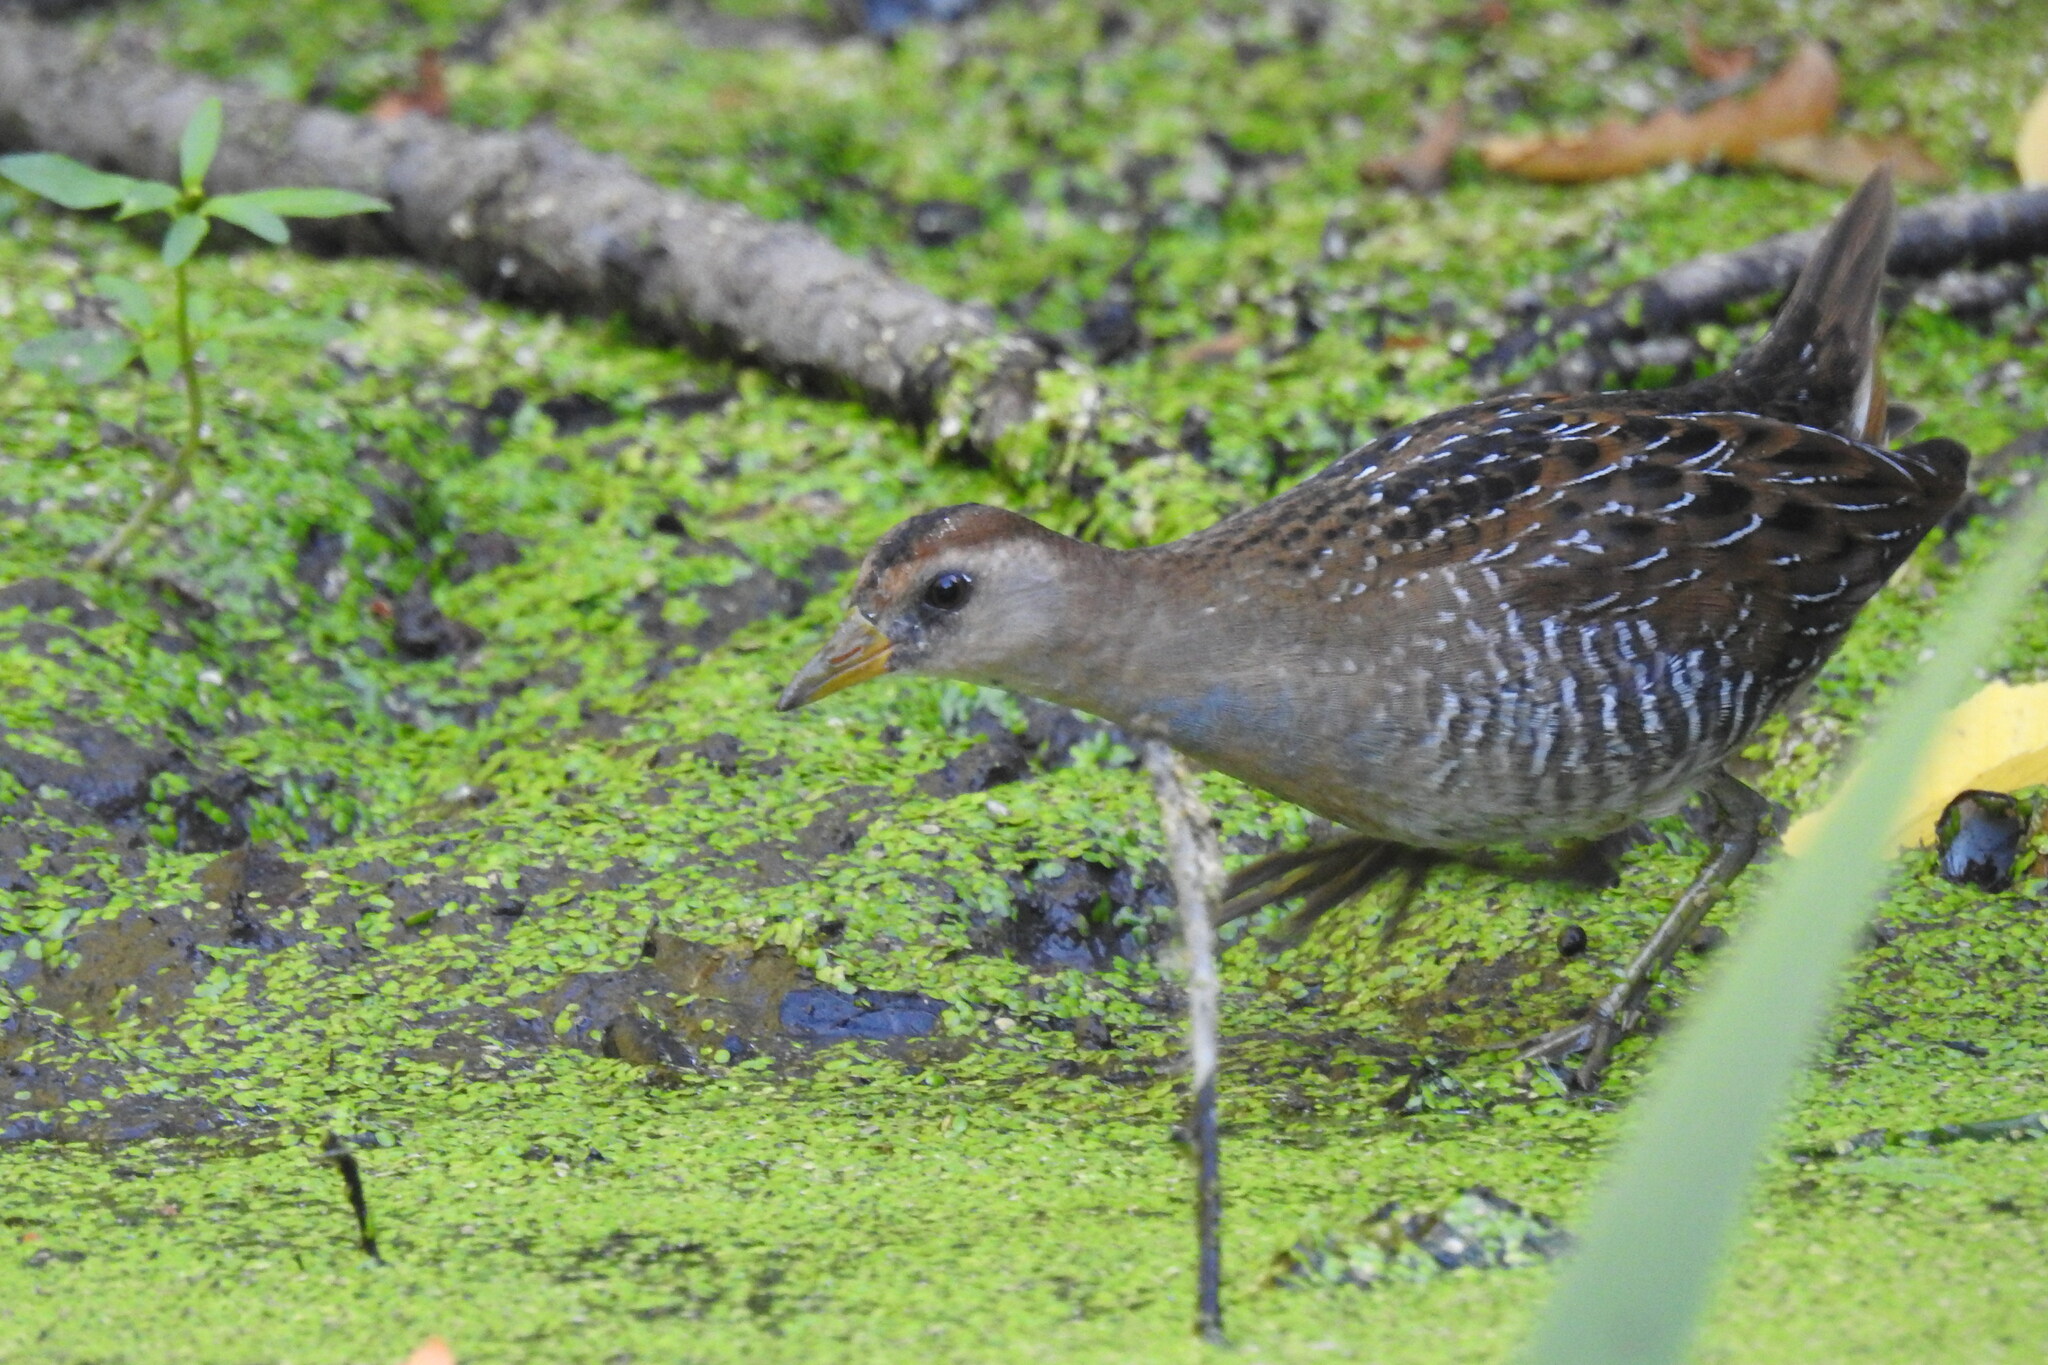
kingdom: Animalia
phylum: Chordata
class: Aves
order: Gruiformes
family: Rallidae
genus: Porzana
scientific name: Porzana carolina
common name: Sora
